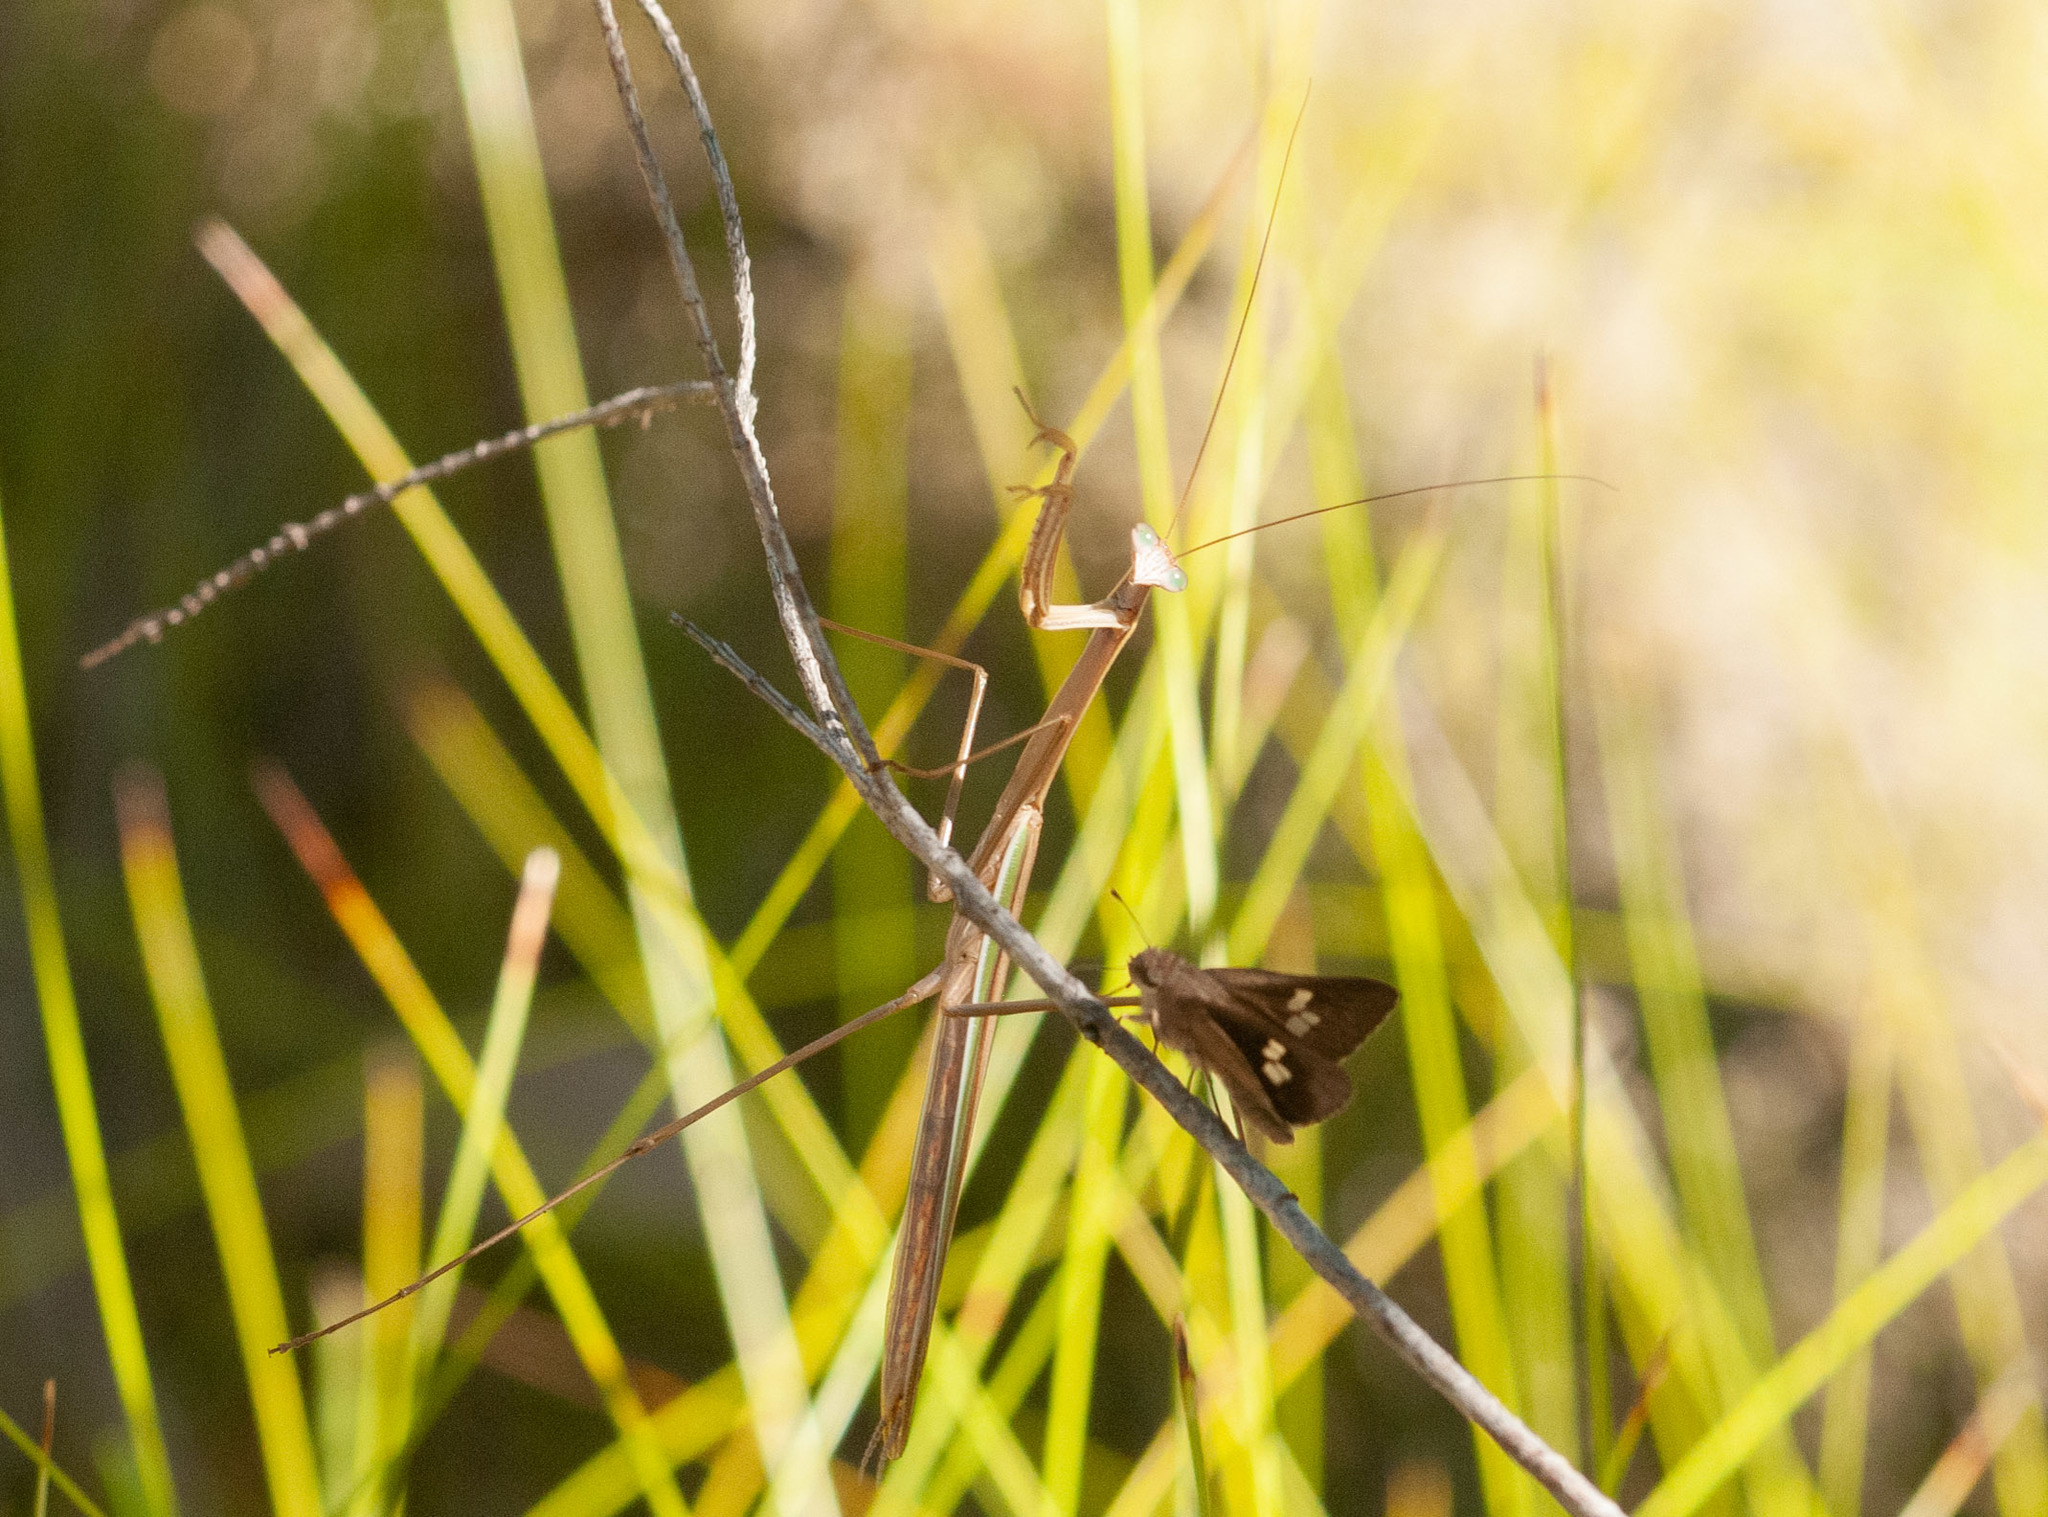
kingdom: Animalia
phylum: Arthropoda
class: Insecta
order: Mantodea
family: Mantidae
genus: Tenodera
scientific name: Tenodera australasiae
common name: Purple-winged mantis
